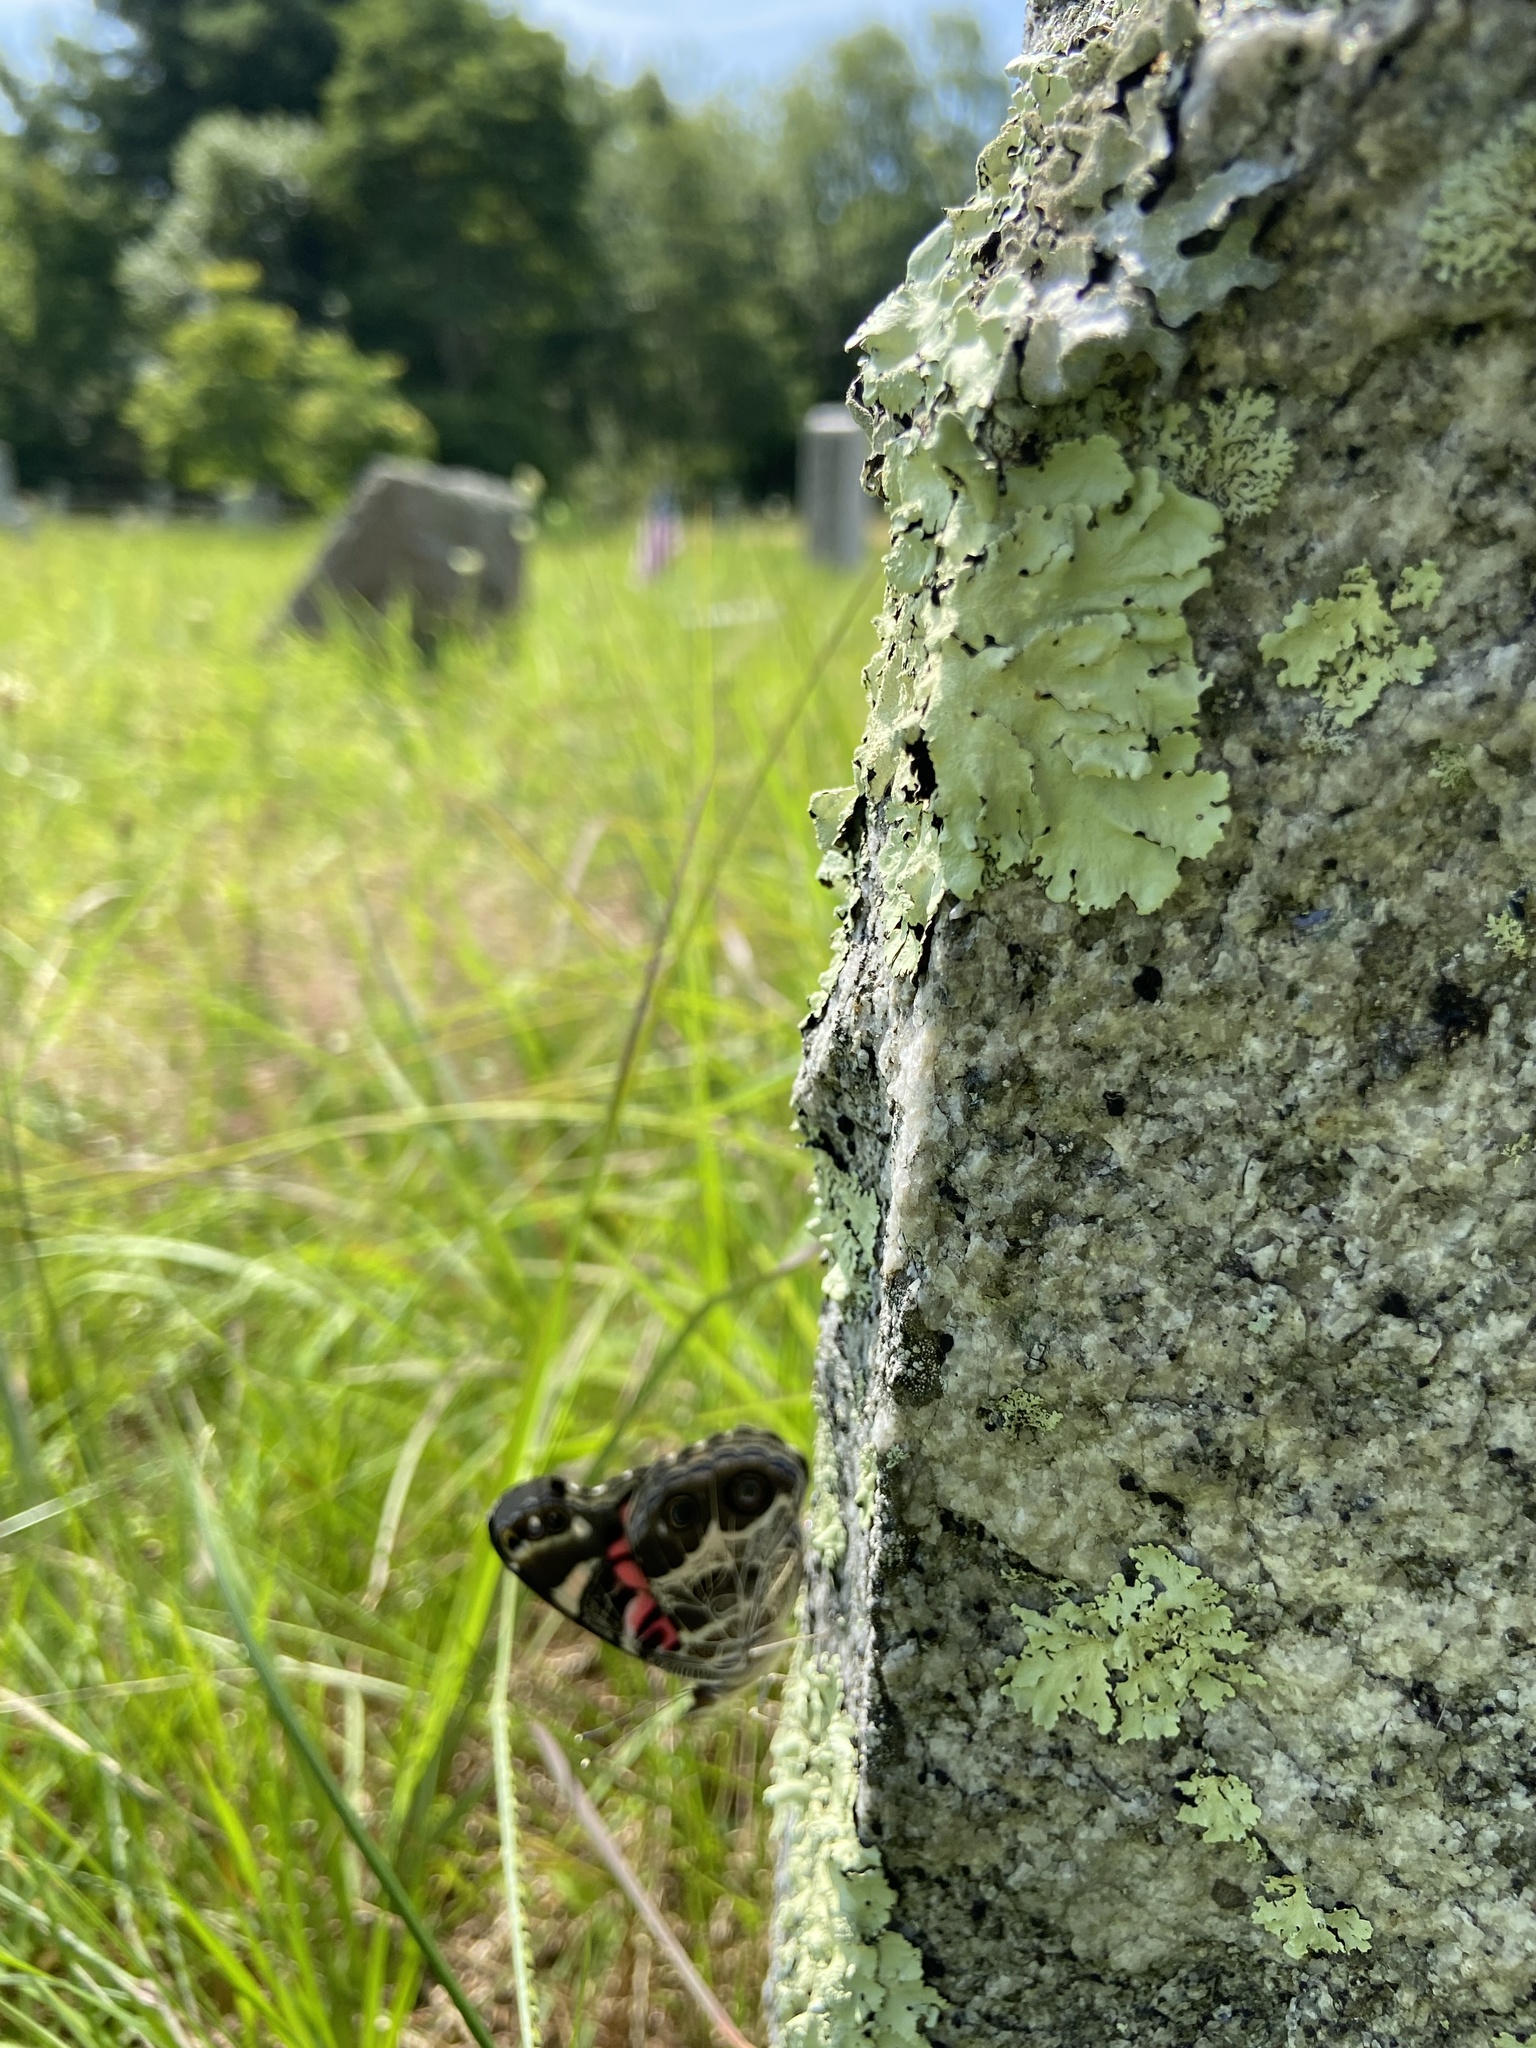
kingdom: Animalia
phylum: Arthropoda
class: Insecta
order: Lepidoptera
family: Nymphalidae
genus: Vanessa
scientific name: Vanessa virginiensis
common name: American lady
